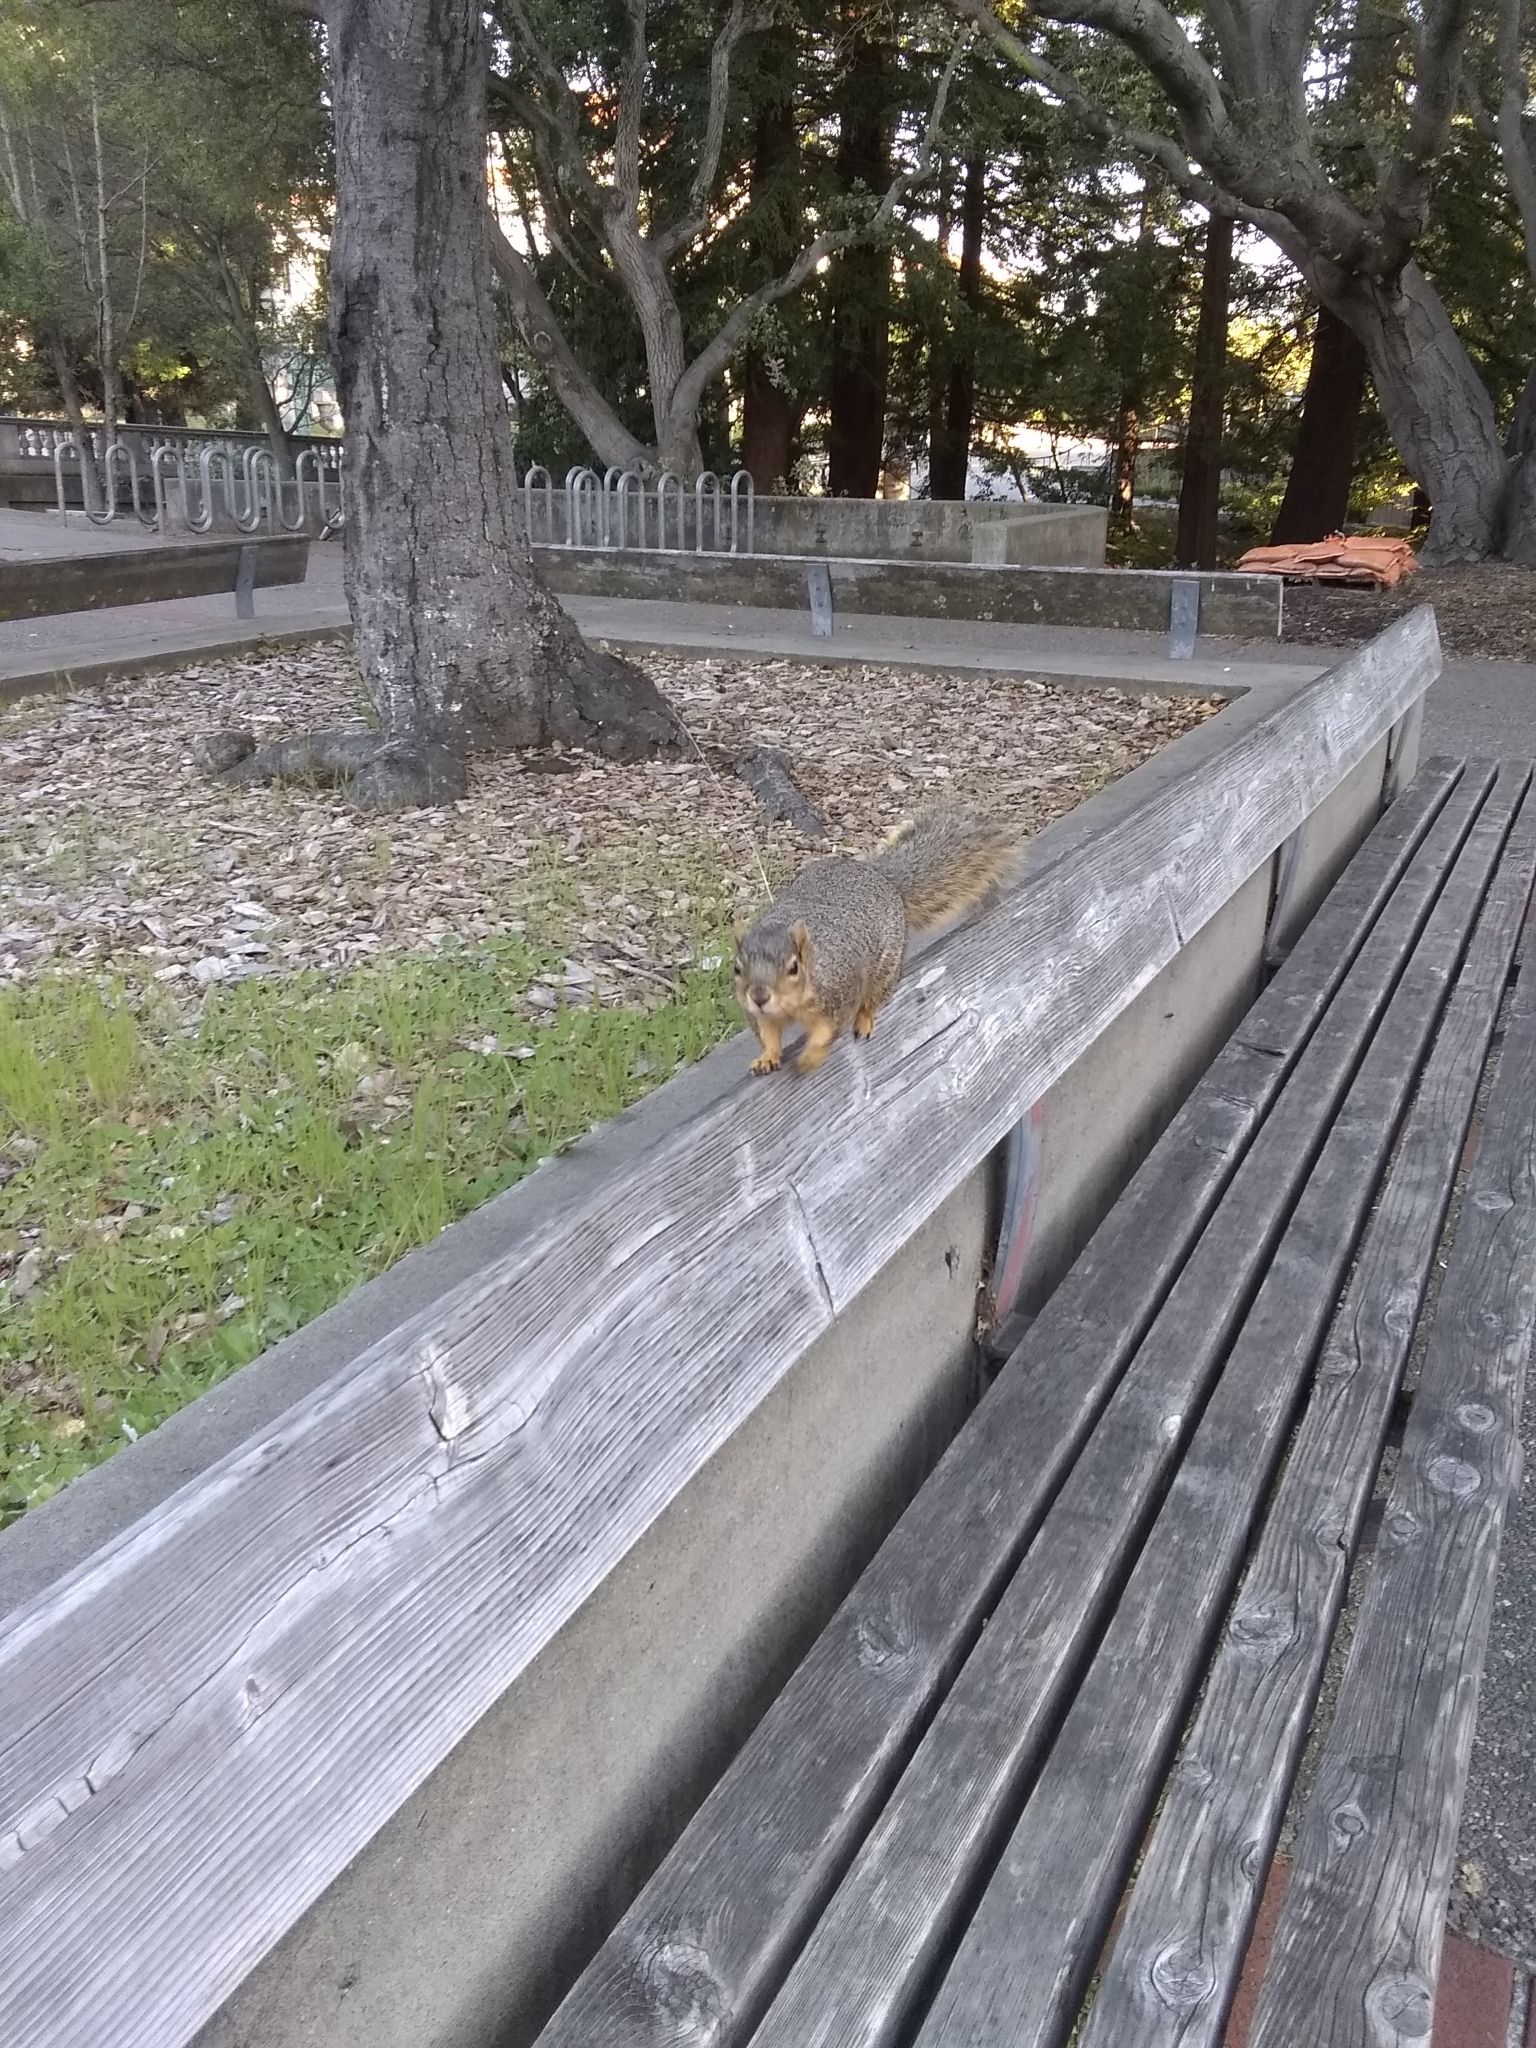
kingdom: Animalia
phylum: Chordata
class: Mammalia
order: Rodentia
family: Sciuridae
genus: Sciurus
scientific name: Sciurus niger
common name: Fox squirrel
